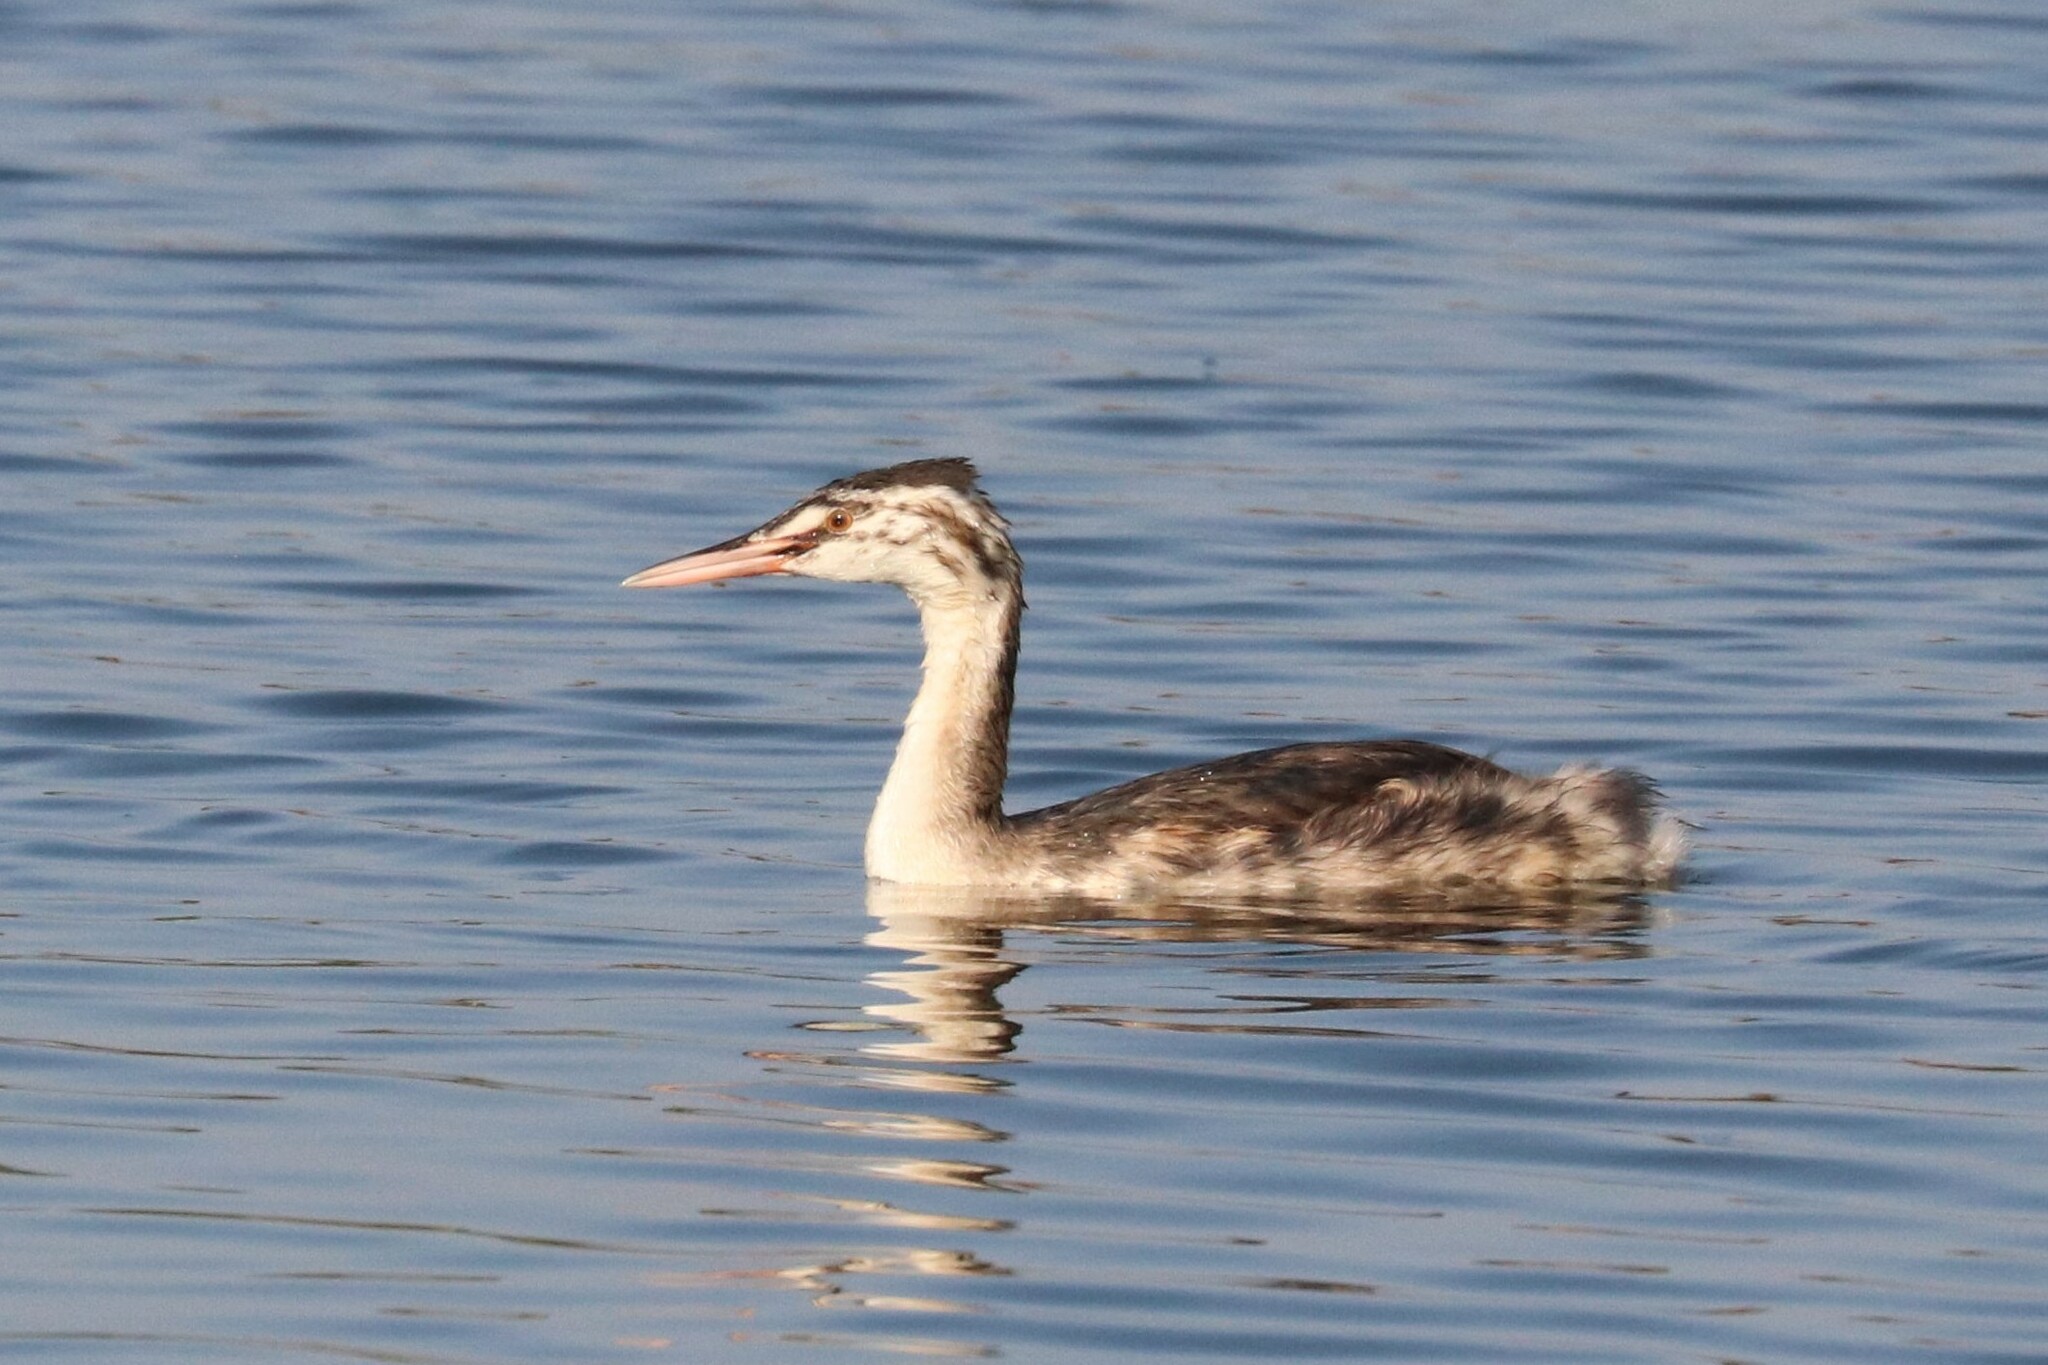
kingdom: Animalia
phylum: Chordata
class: Aves
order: Podicipediformes
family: Podicipedidae
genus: Podiceps
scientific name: Podiceps cristatus
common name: Great crested grebe
